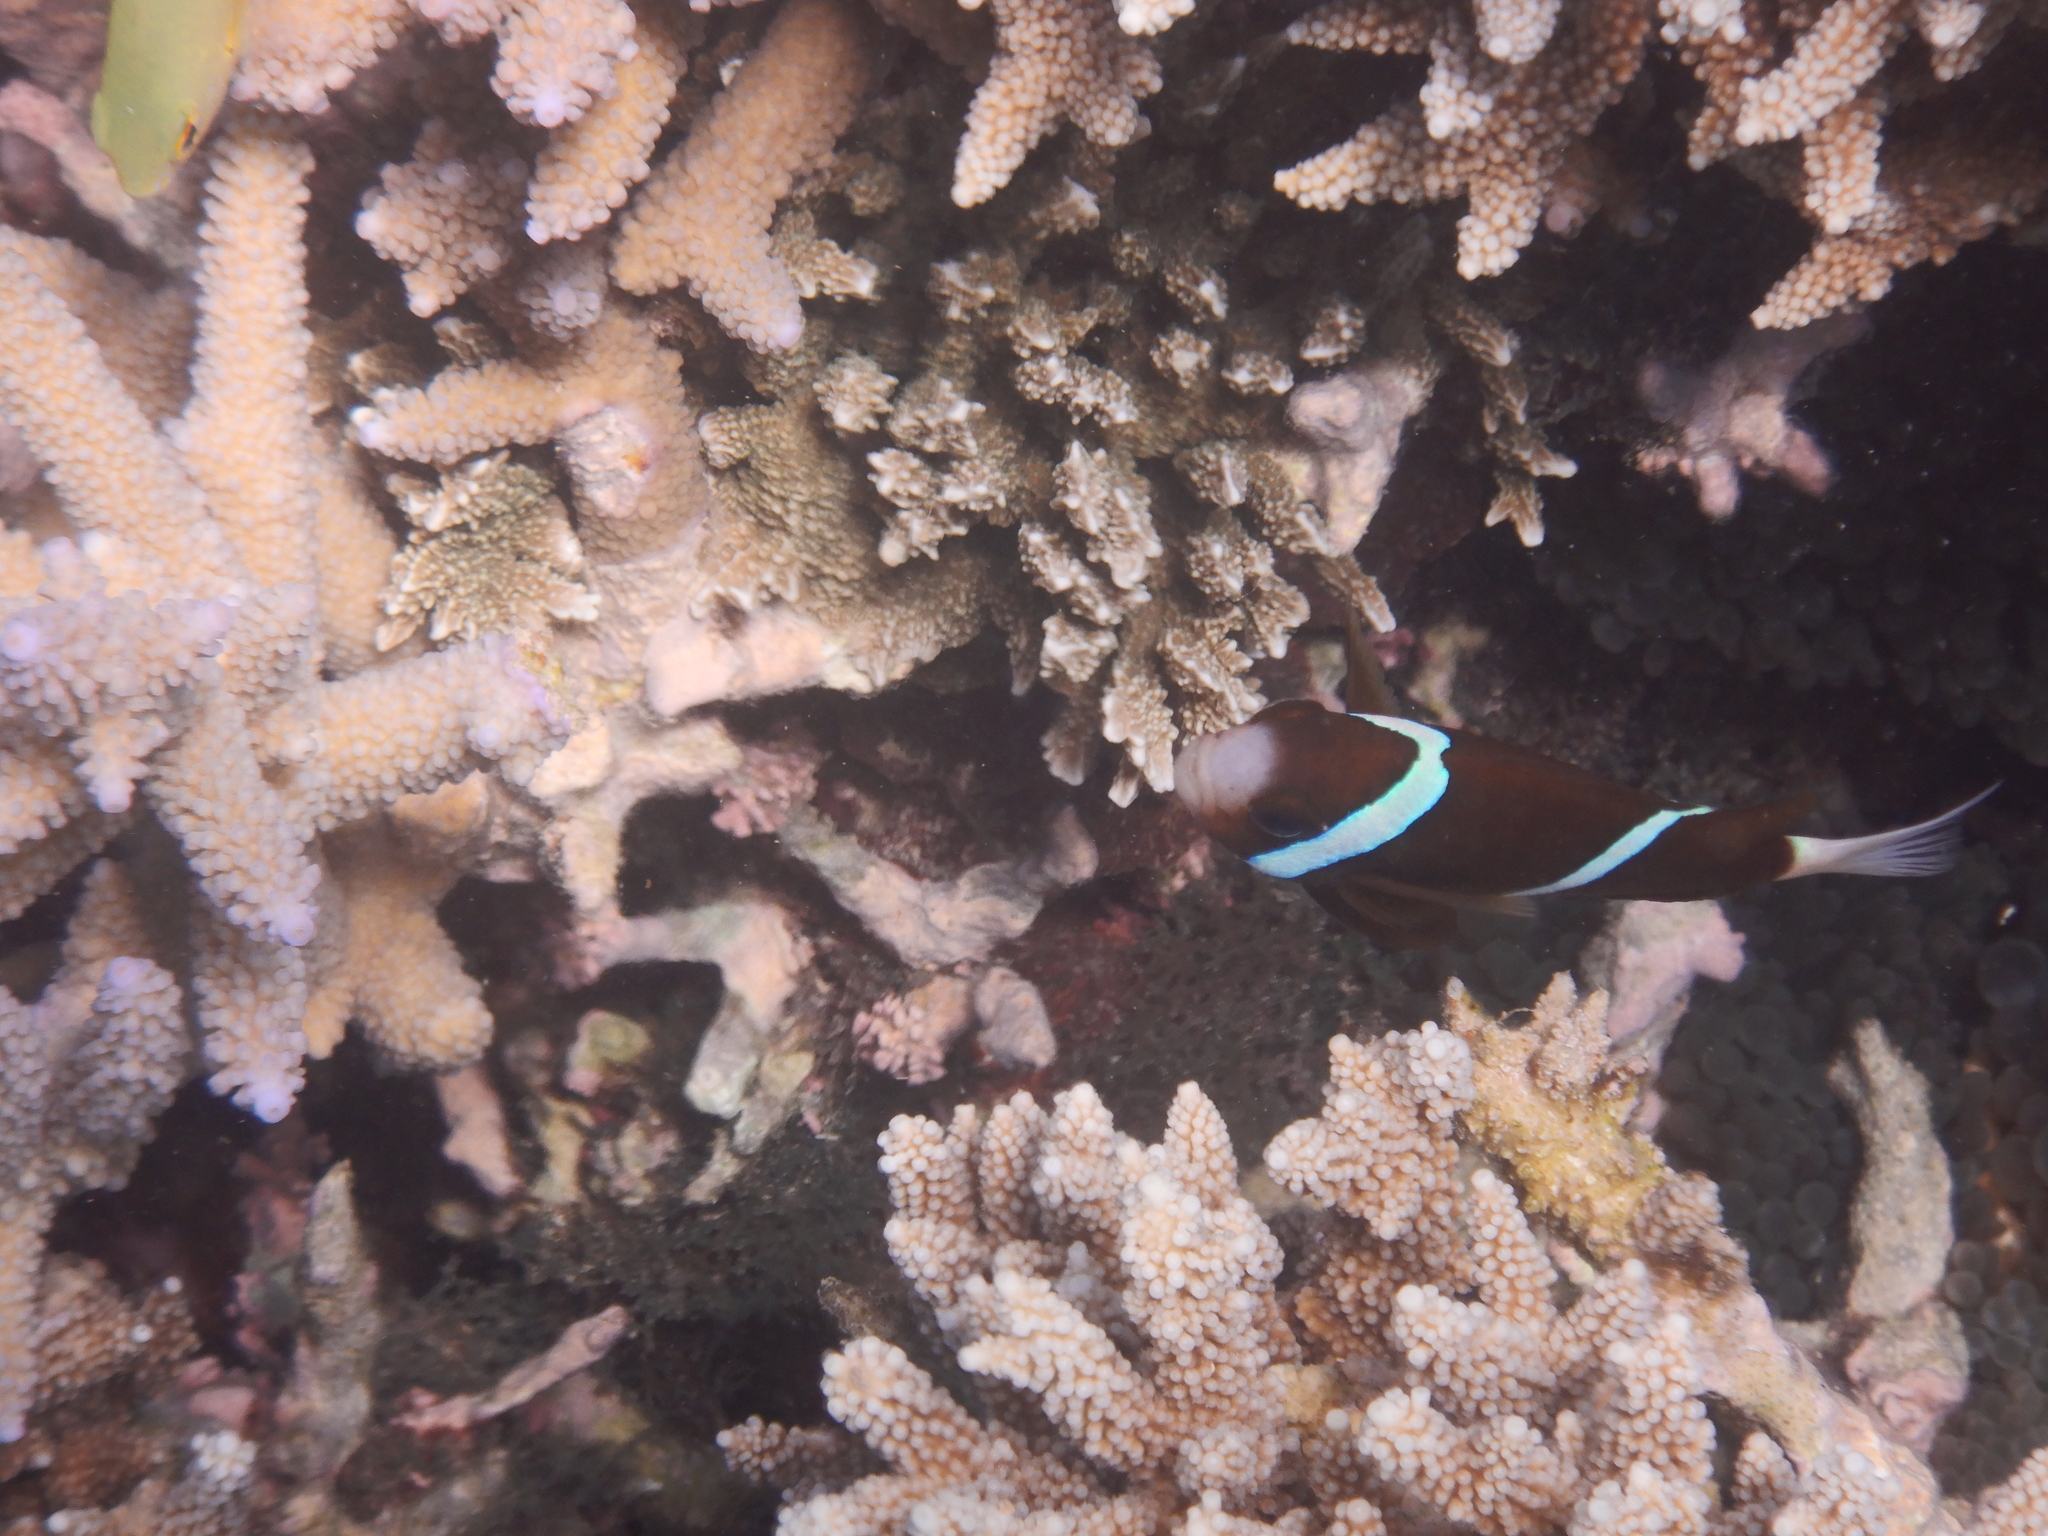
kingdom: Animalia
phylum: Chordata
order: Perciformes
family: Pomacentridae
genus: Amphiprion
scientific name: Amphiprion akindynos
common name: Barrier reef anemonefish
